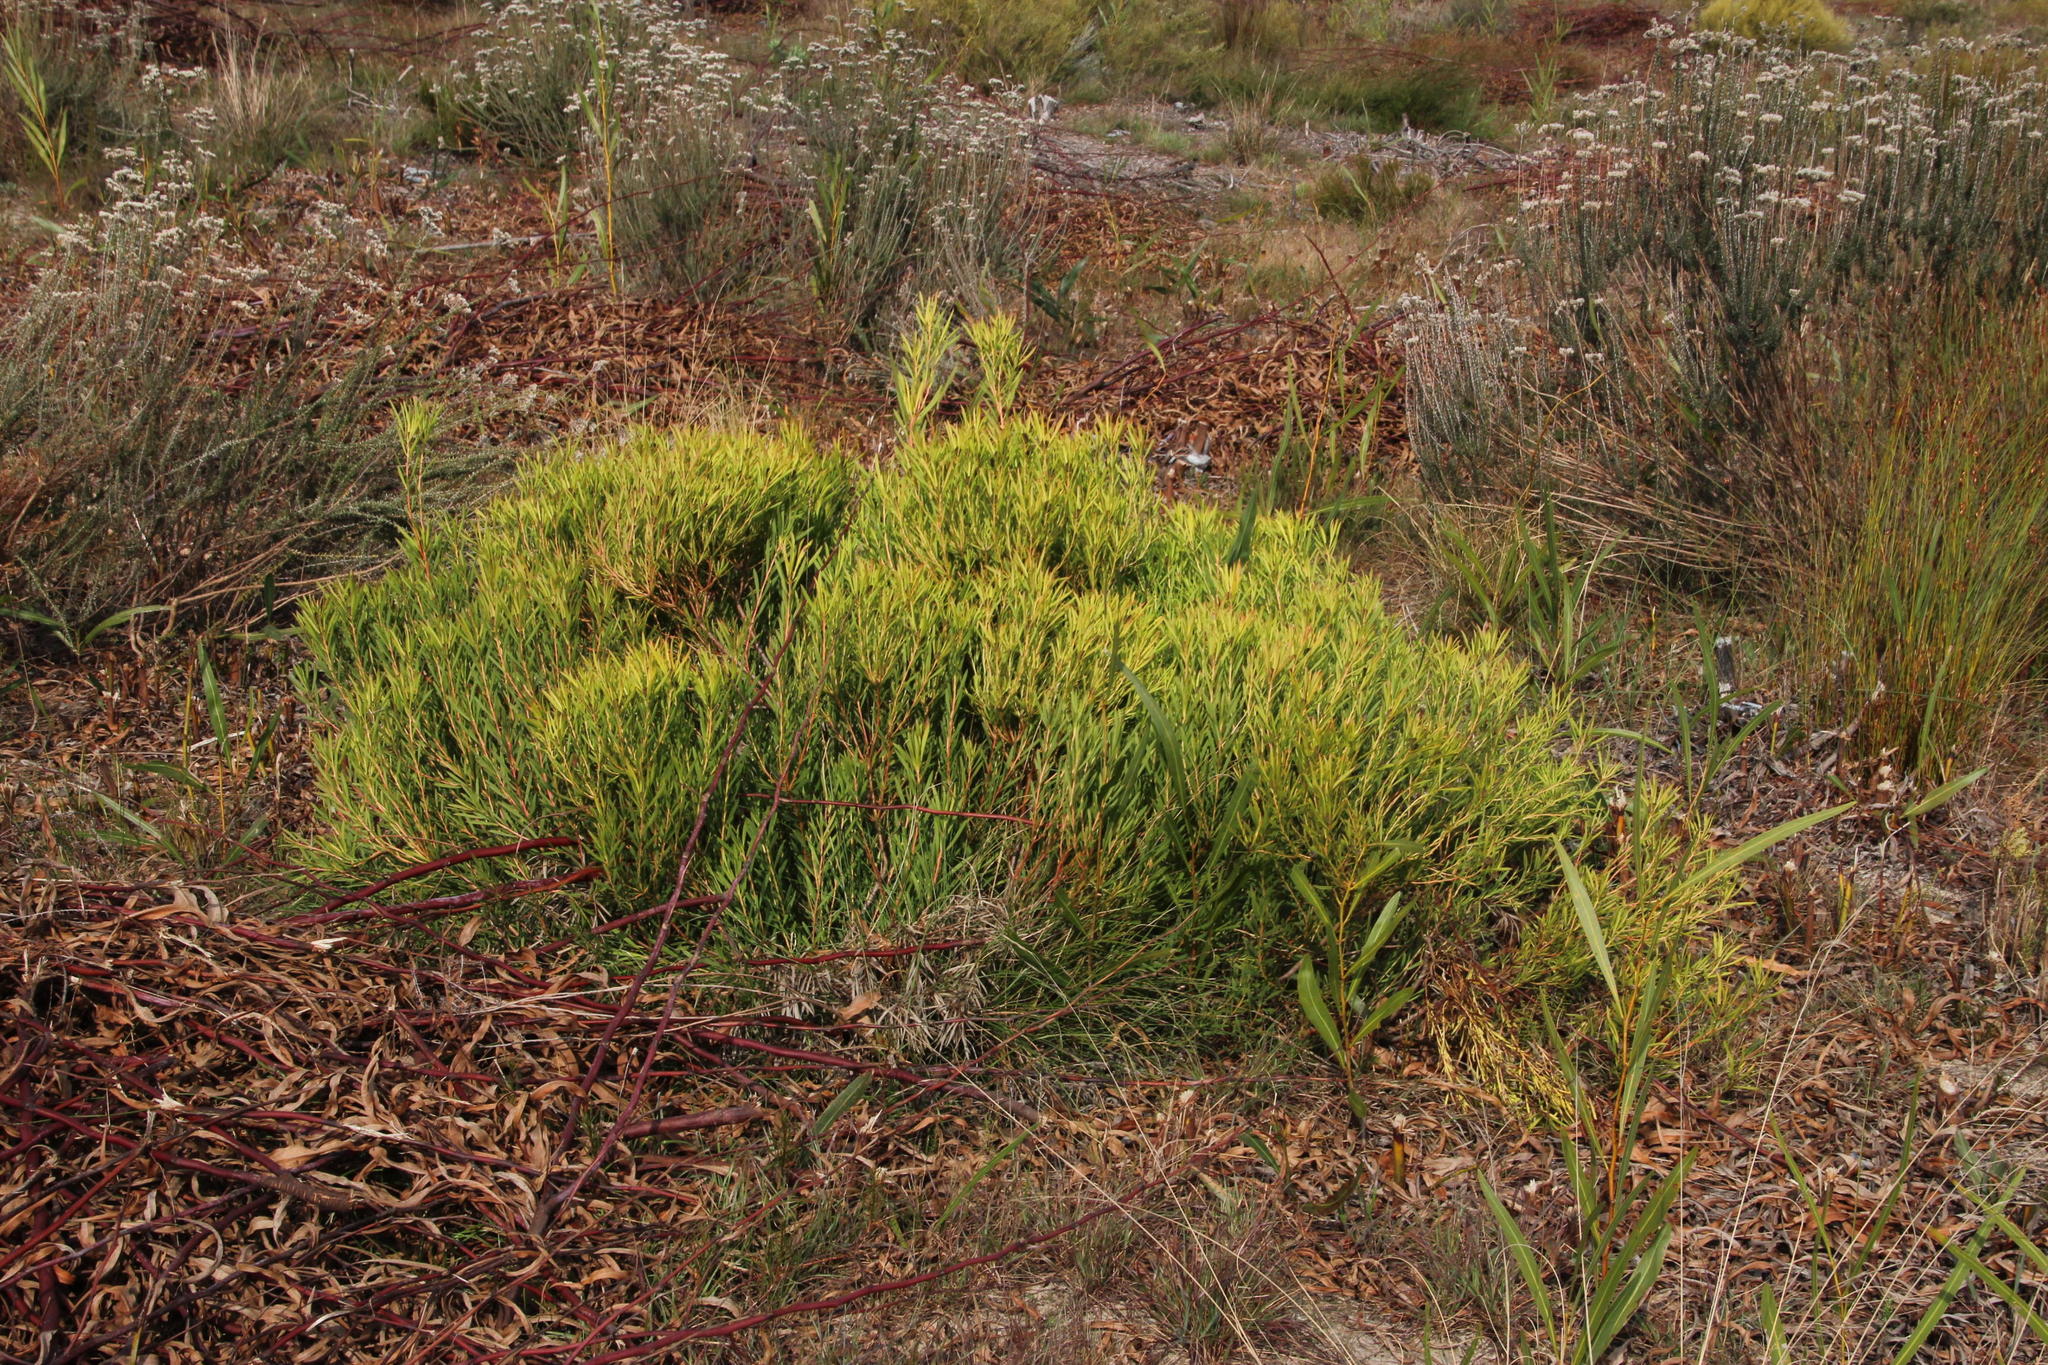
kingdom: Plantae
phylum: Tracheophyta
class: Magnoliopsida
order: Proteales
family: Proteaceae
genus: Leucadendron
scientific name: Leucadendron salignum
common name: Common sunshine conebush
